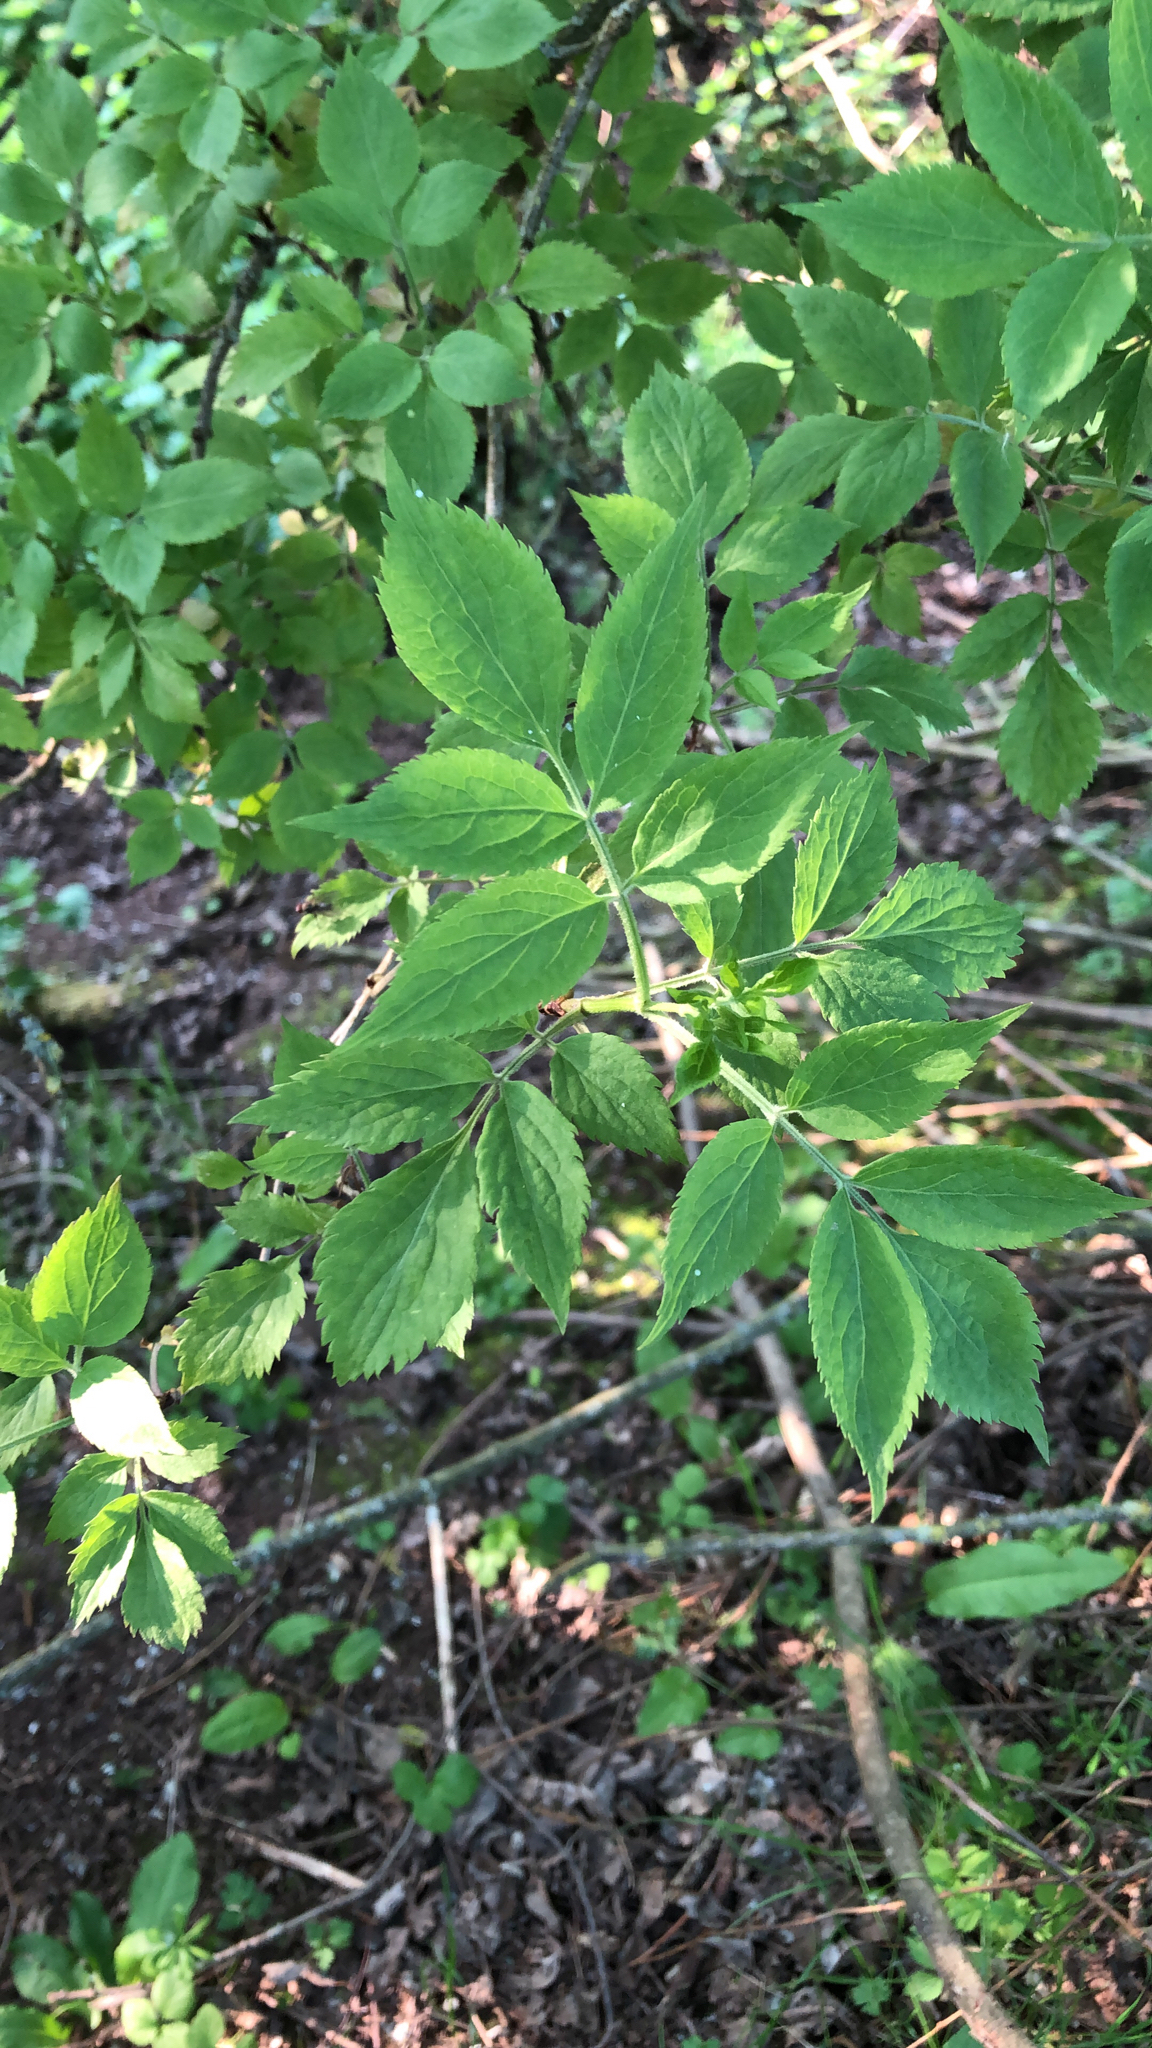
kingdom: Plantae
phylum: Tracheophyta
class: Magnoliopsida
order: Dipsacales
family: Viburnaceae
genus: Sambucus
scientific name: Sambucus nigra
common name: Elder
